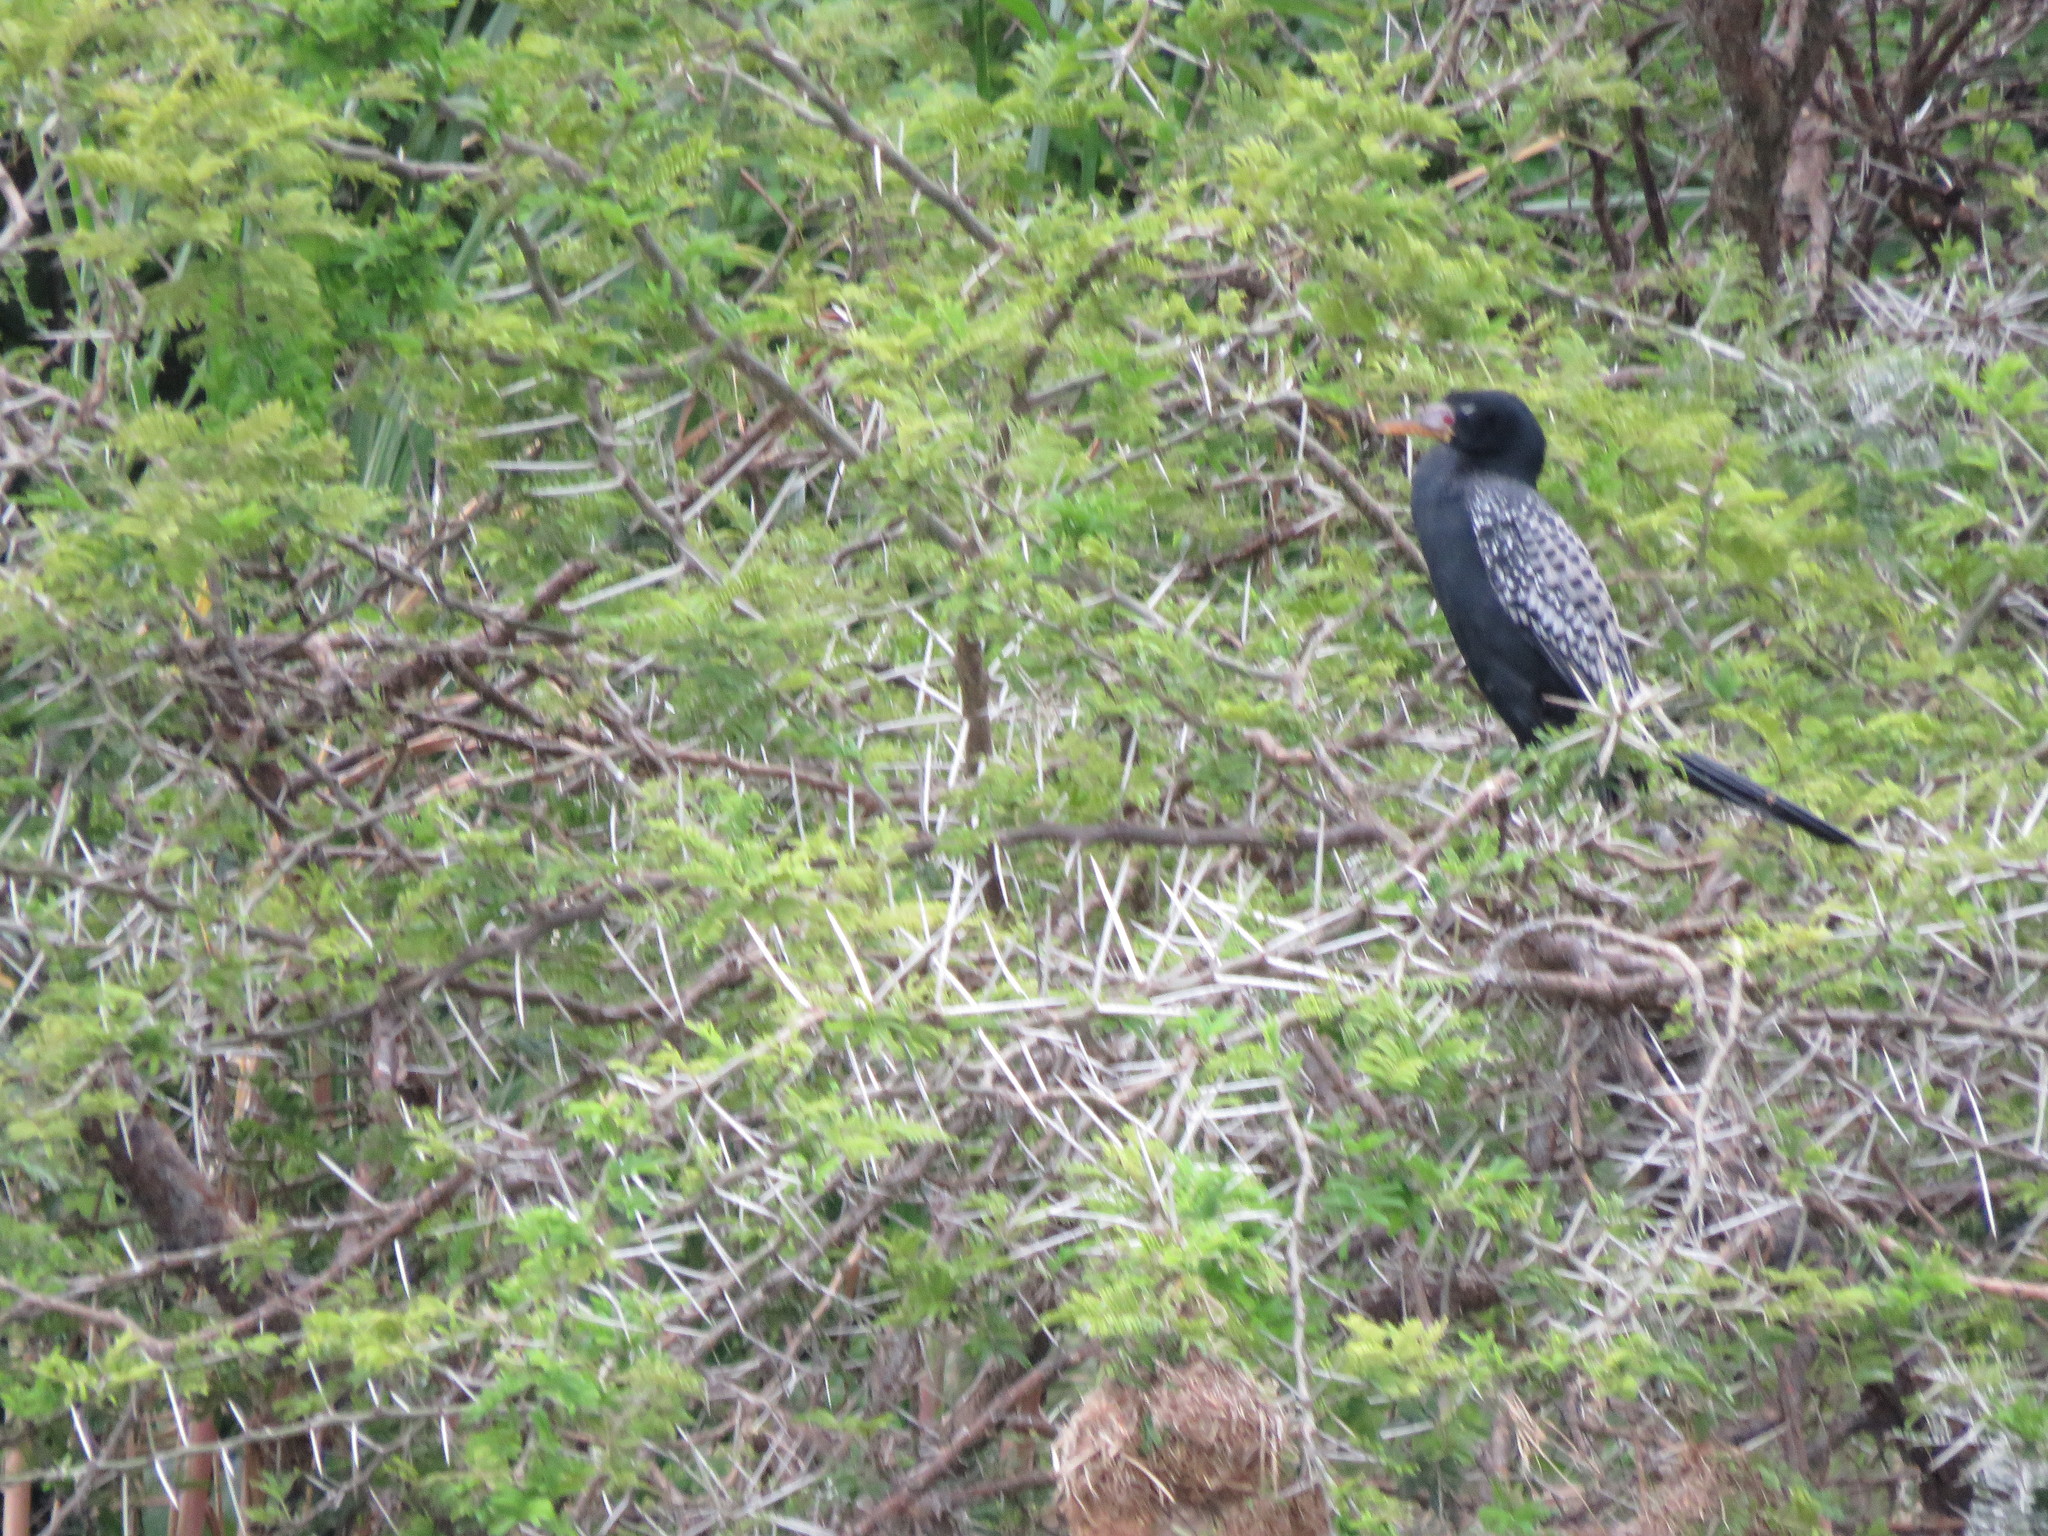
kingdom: Animalia
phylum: Chordata
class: Aves
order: Suliformes
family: Phalacrocoracidae
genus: Microcarbo
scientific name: Microcarbo africanus
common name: Long-tailed cormorant
